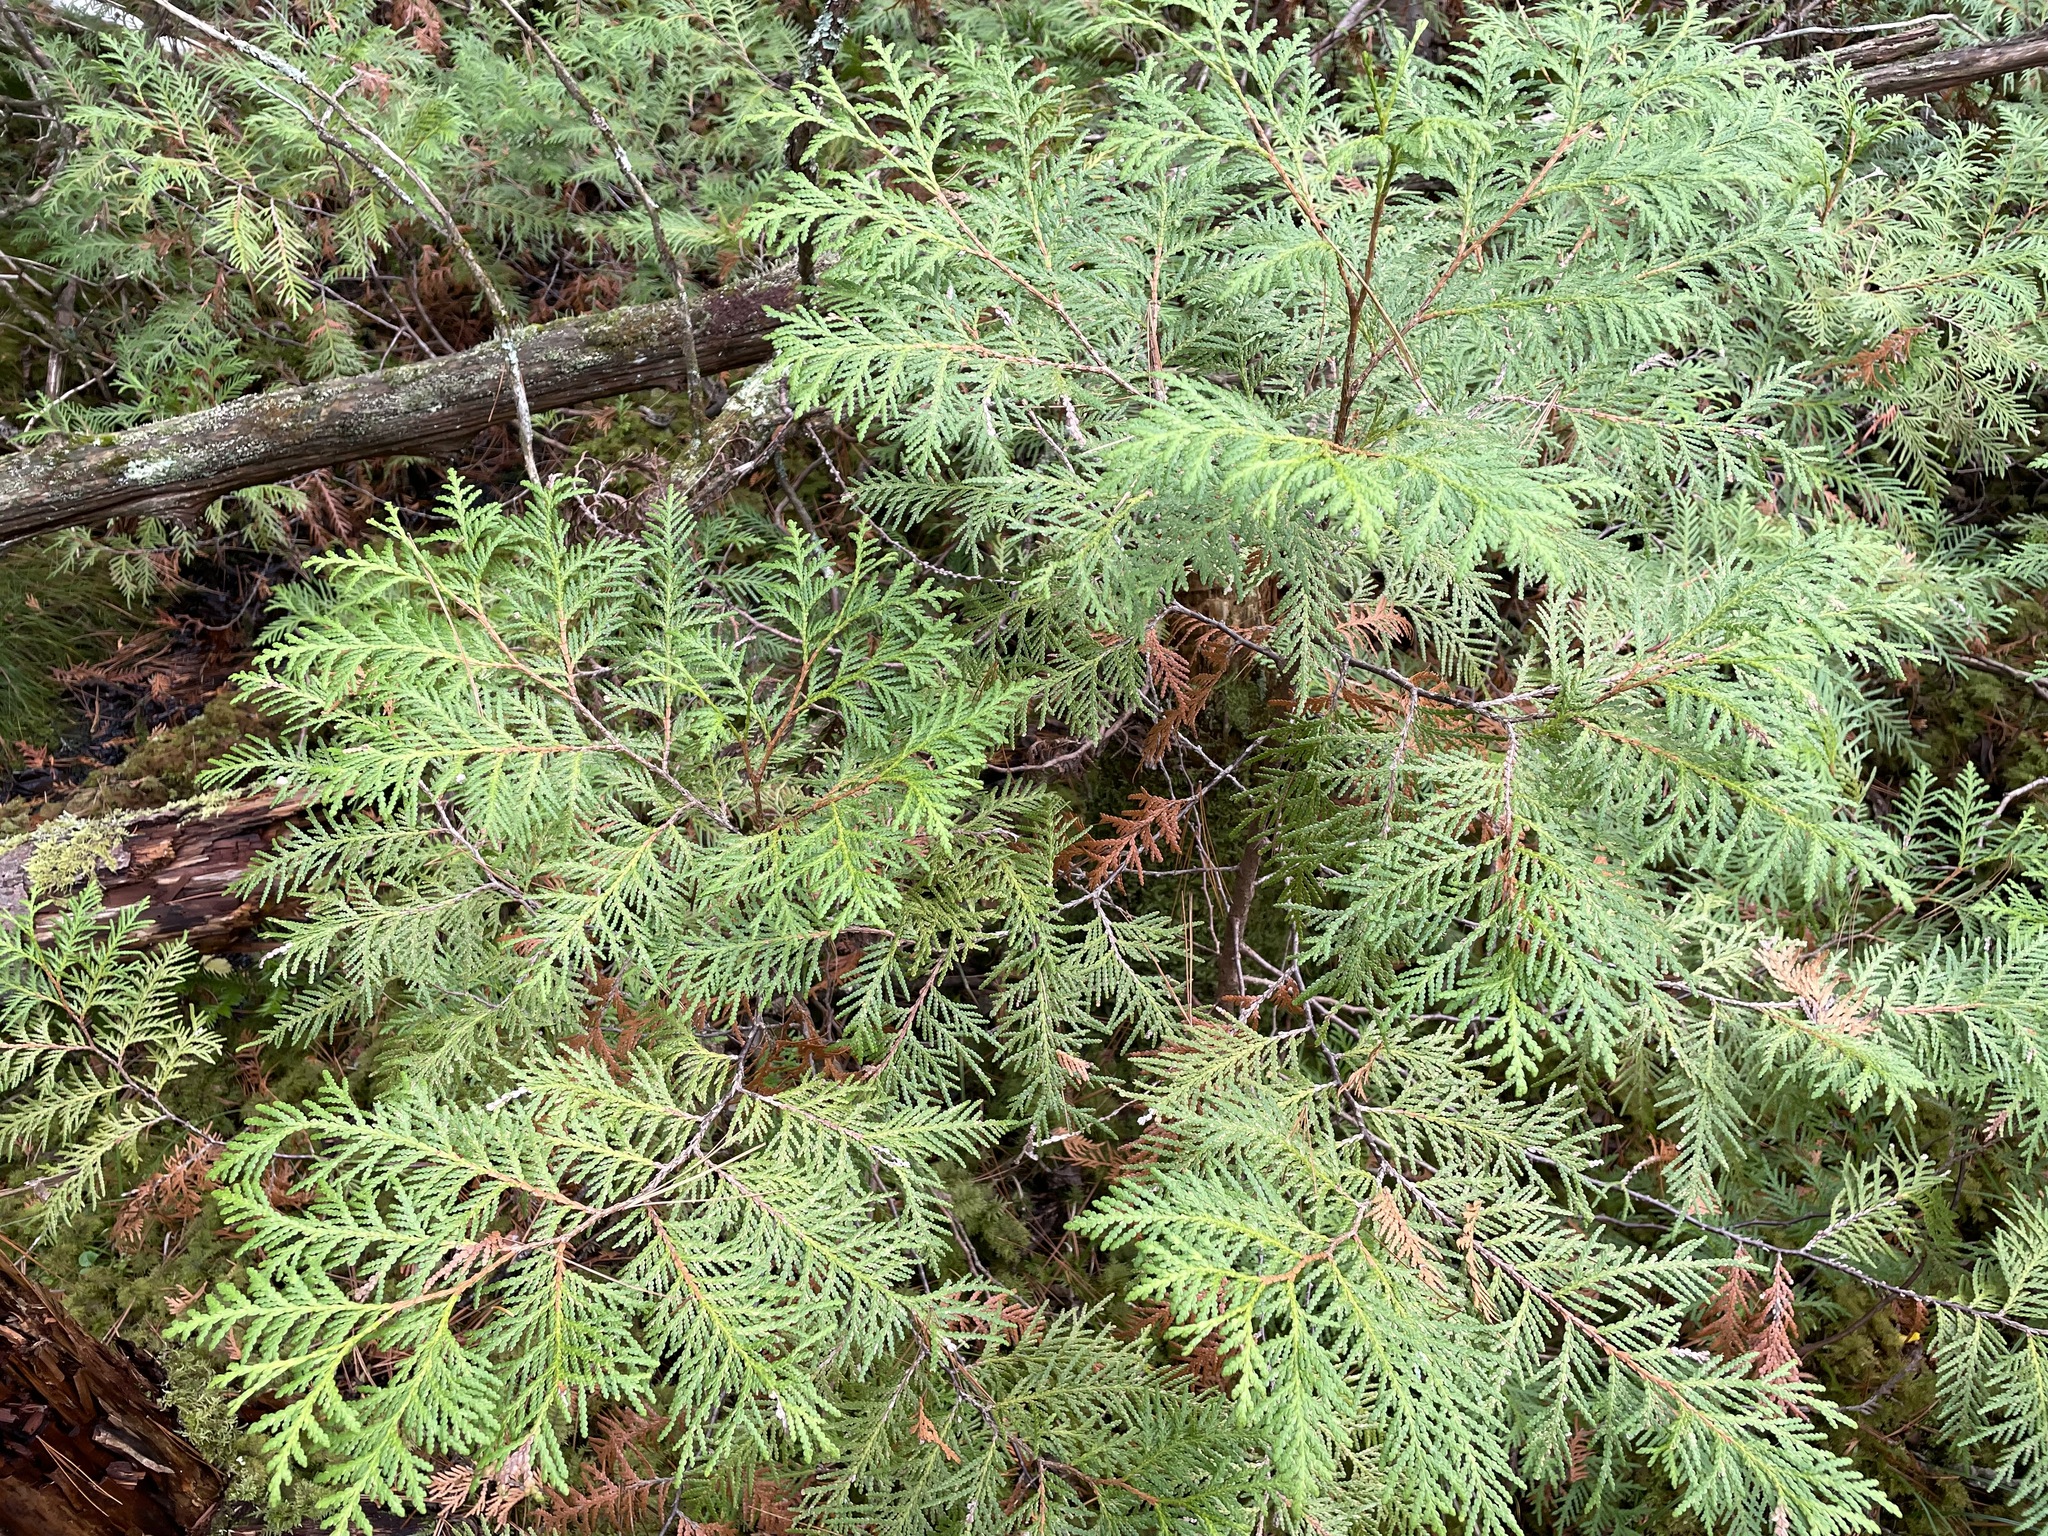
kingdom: Plantae
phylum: Tracheophyta
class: Pinopsida
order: Pinales
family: Cupressaceae
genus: Thuja
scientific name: Thuja occidentalis
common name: Northern white-cedar
